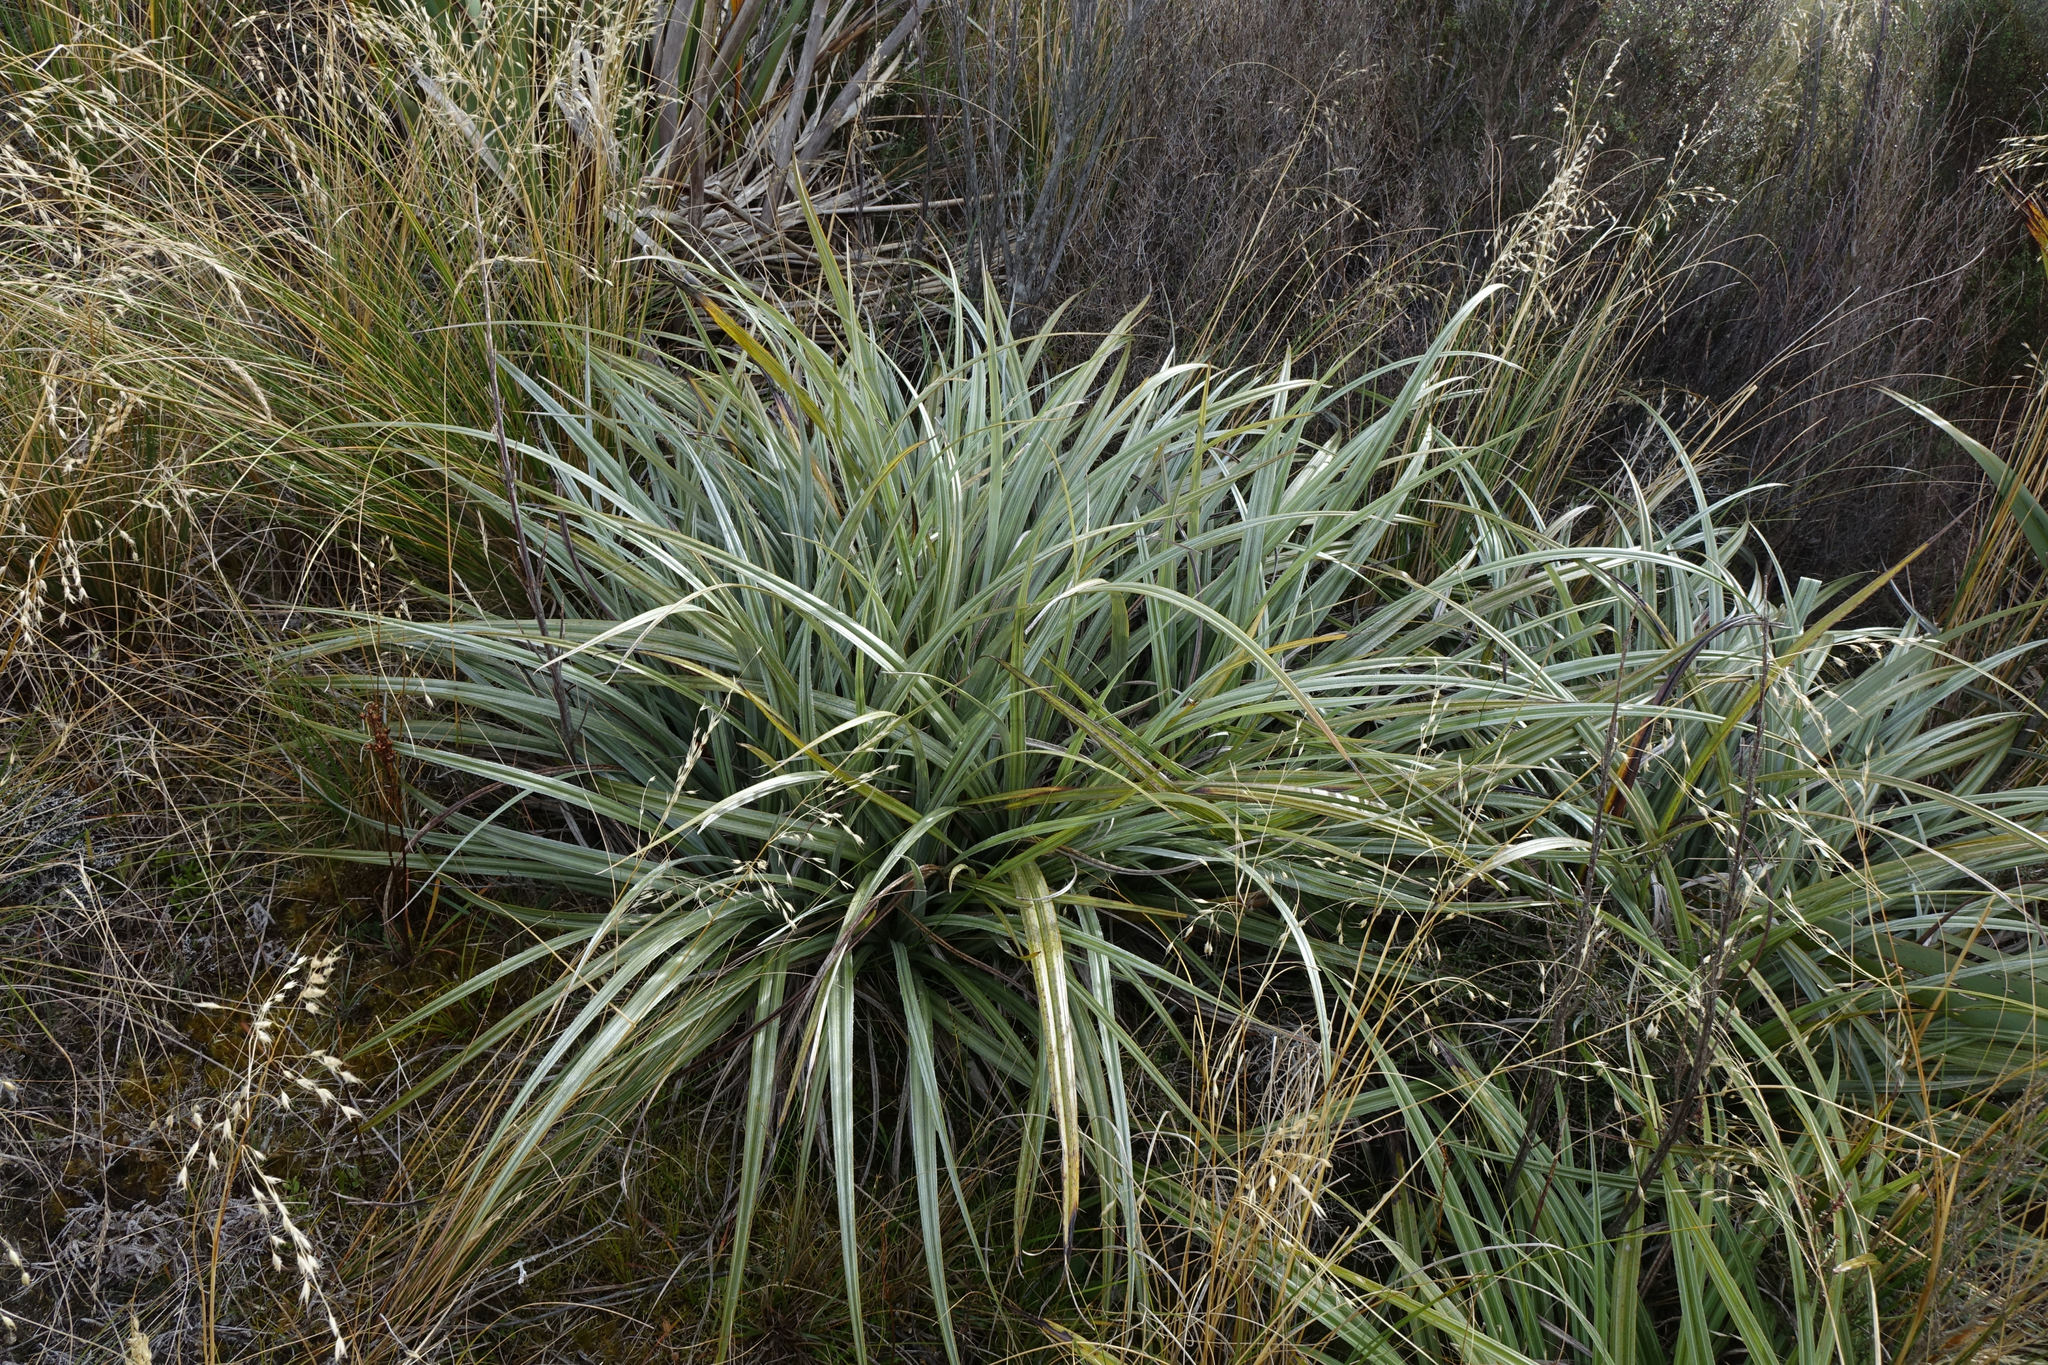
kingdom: Plantae
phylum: Tracheophyta
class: Liliopsida
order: Asparagales
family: Asteliaceae
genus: Astelia
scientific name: Astelia nervosa
